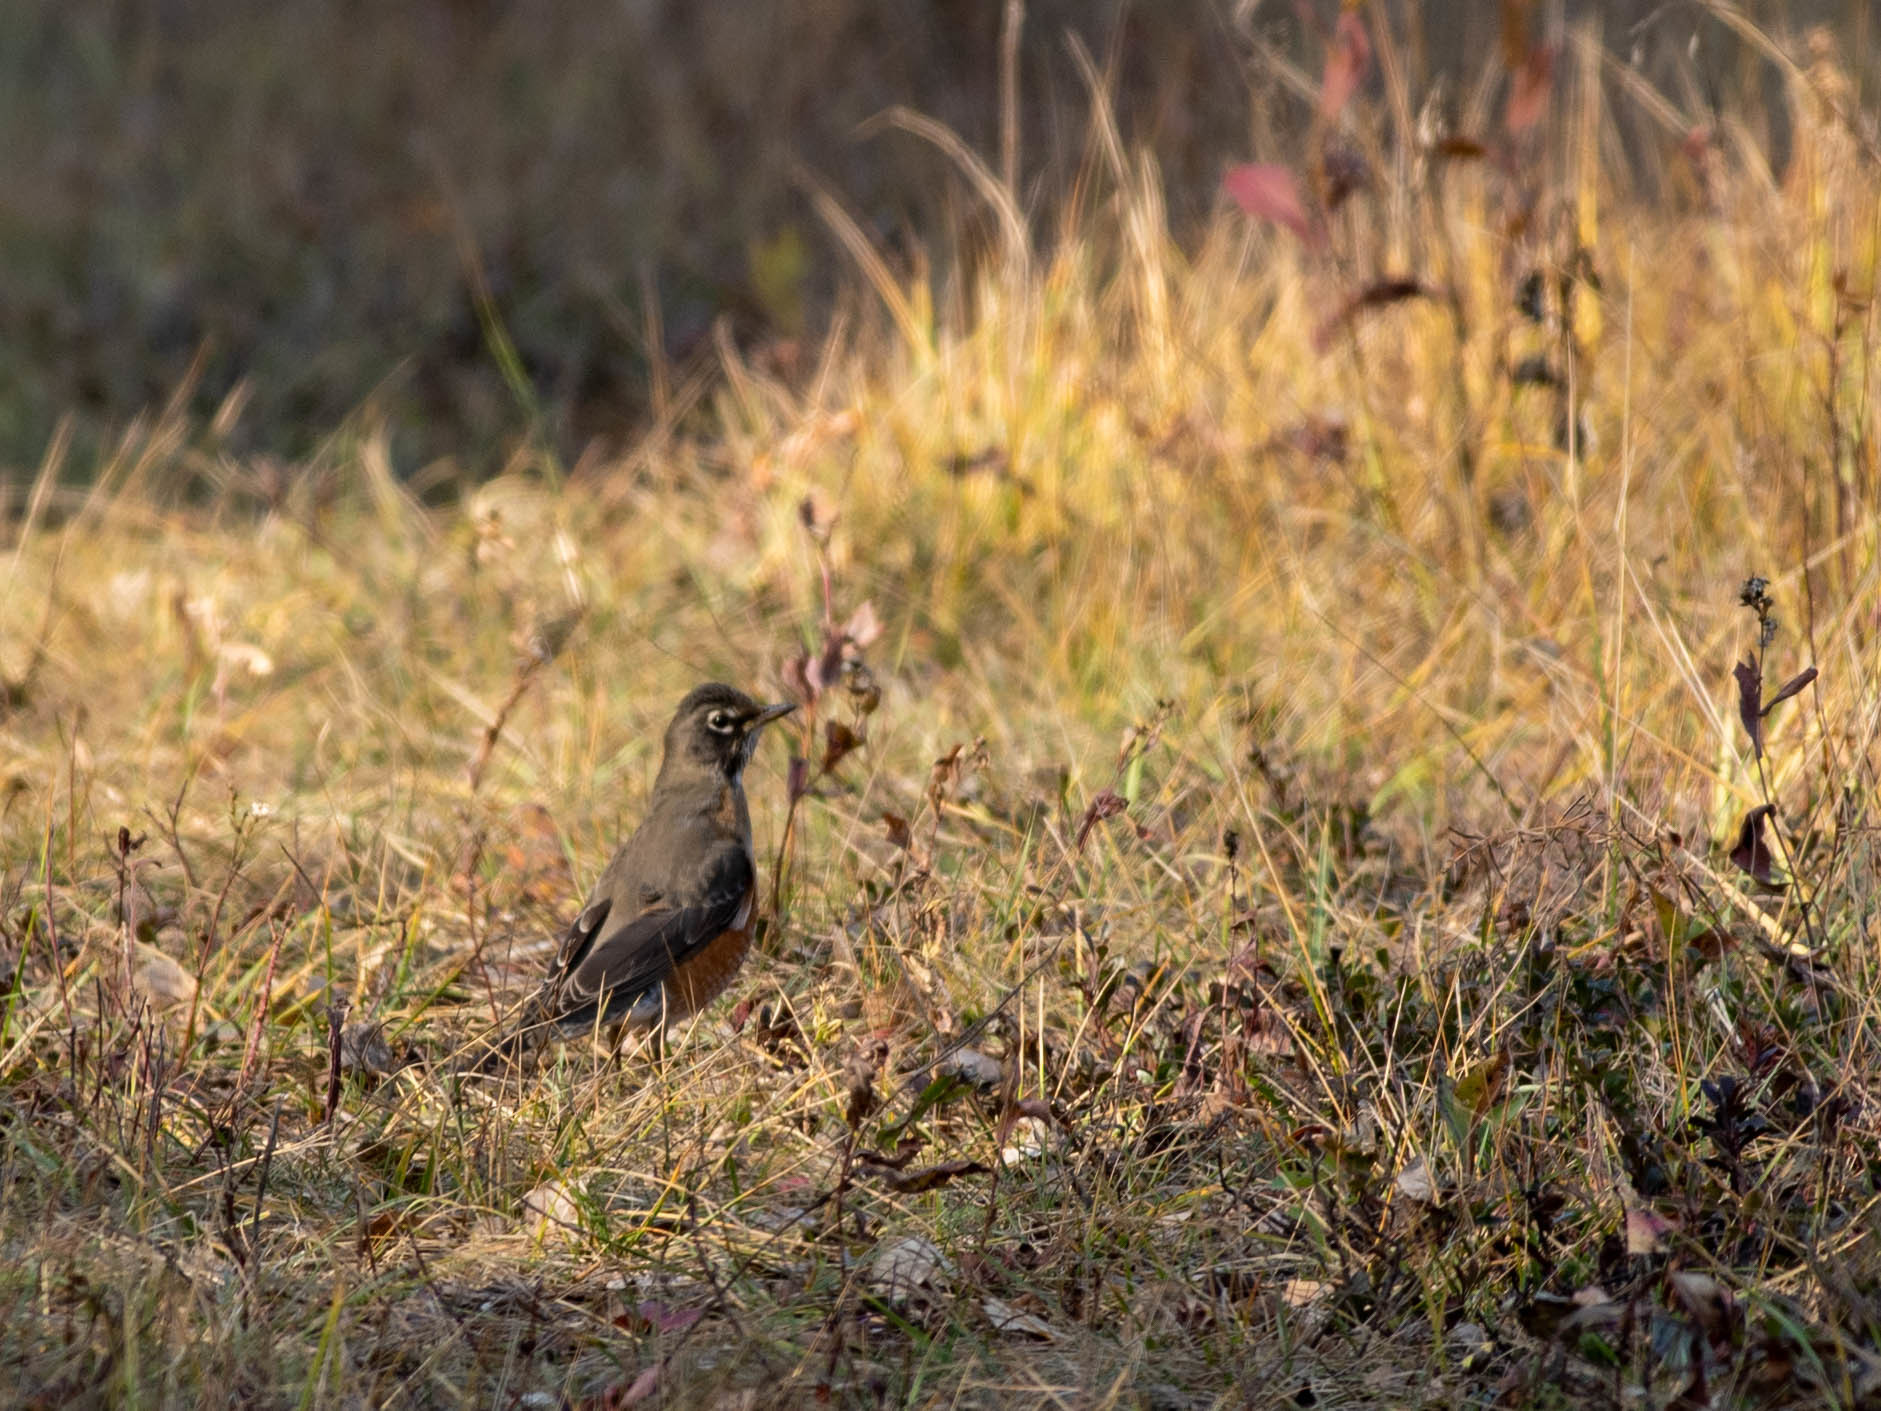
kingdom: Animalia
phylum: Chordata
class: Aves
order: Passeriformes
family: Turdidae
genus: Turdus
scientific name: Turdus migratorius
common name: American robin
